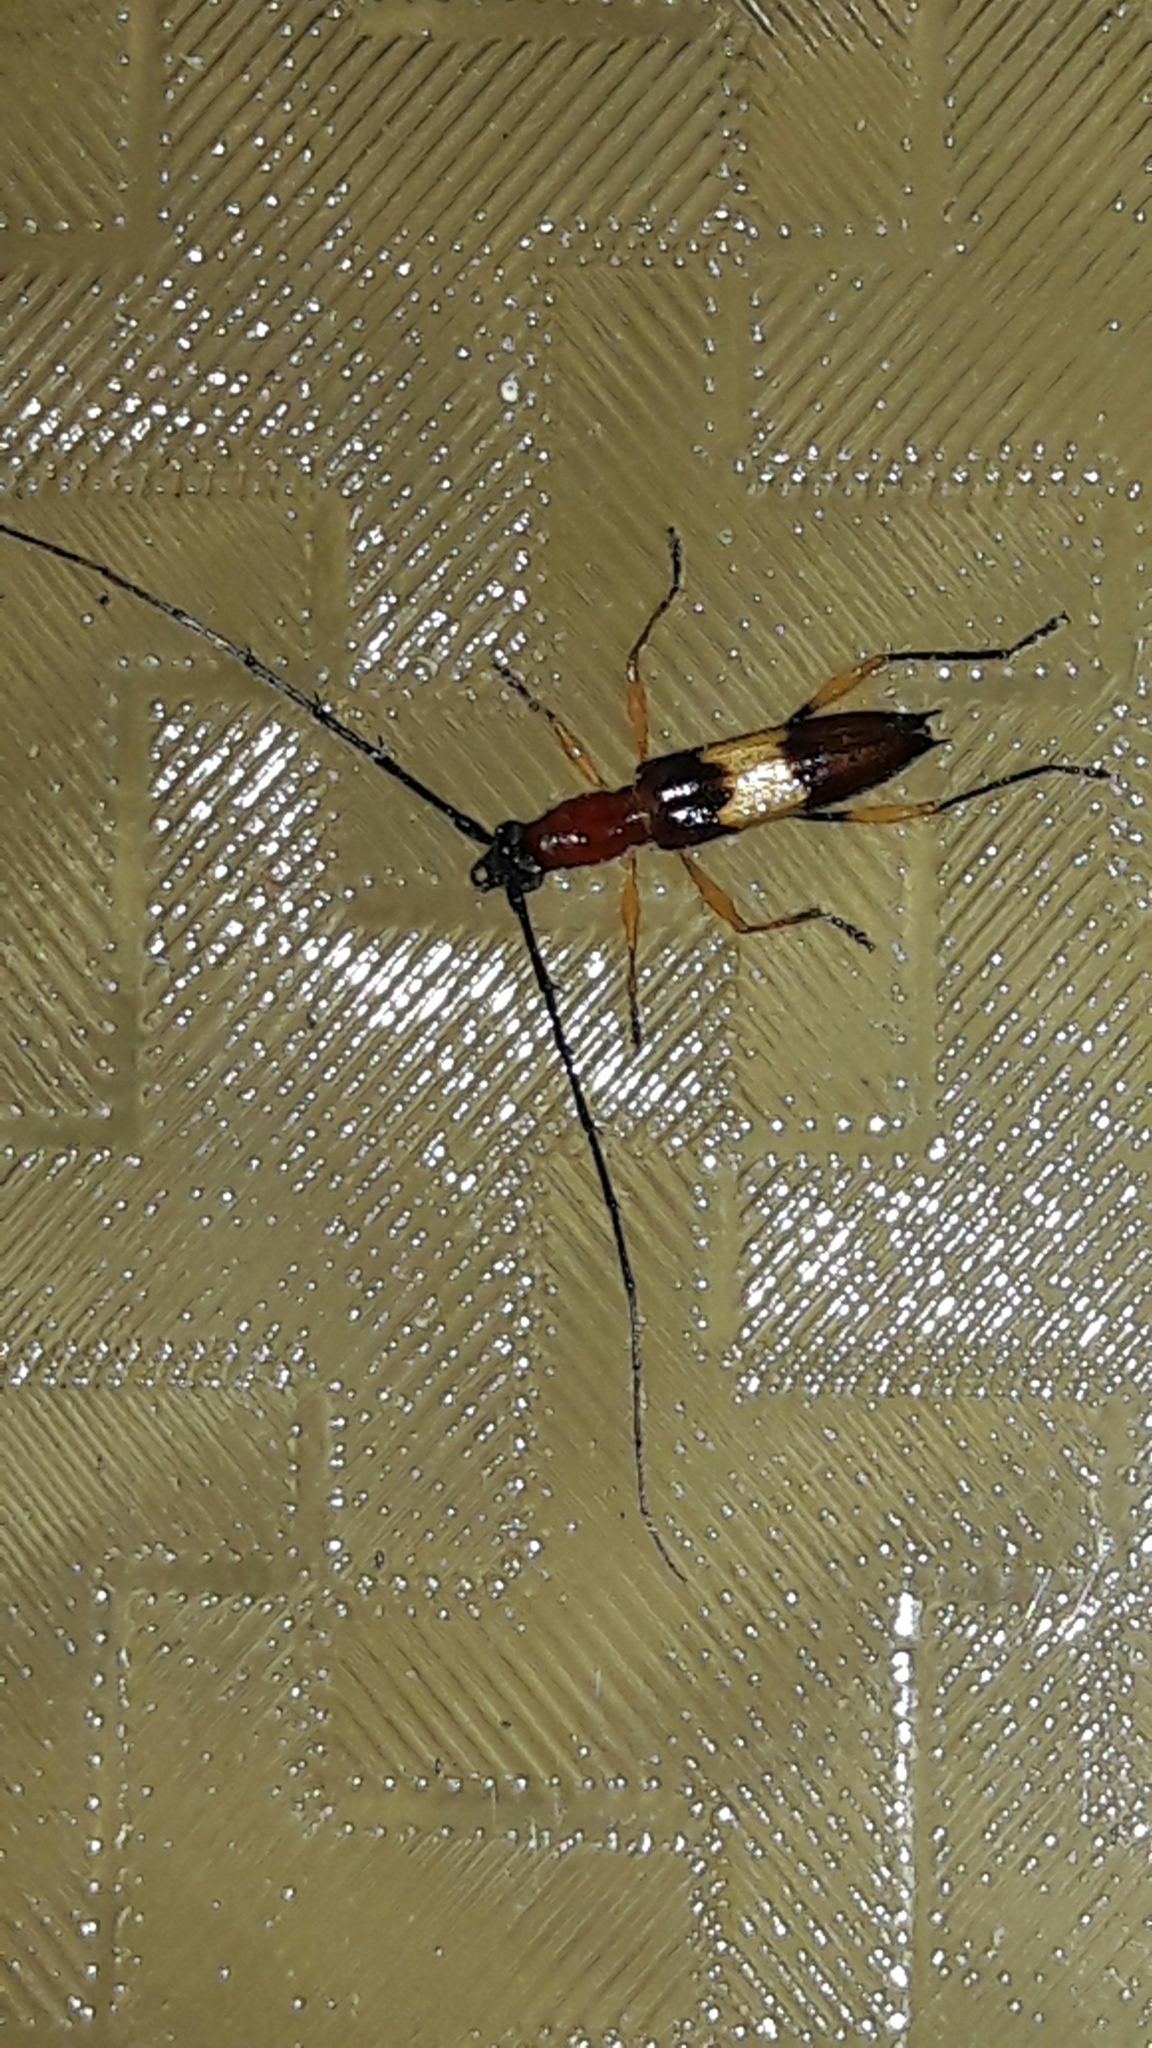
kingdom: Animalia
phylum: Arthropoda
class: Insecta
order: Coleoptera
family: Cerambycidae
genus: Stizocera
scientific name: Stizocera meinerti
